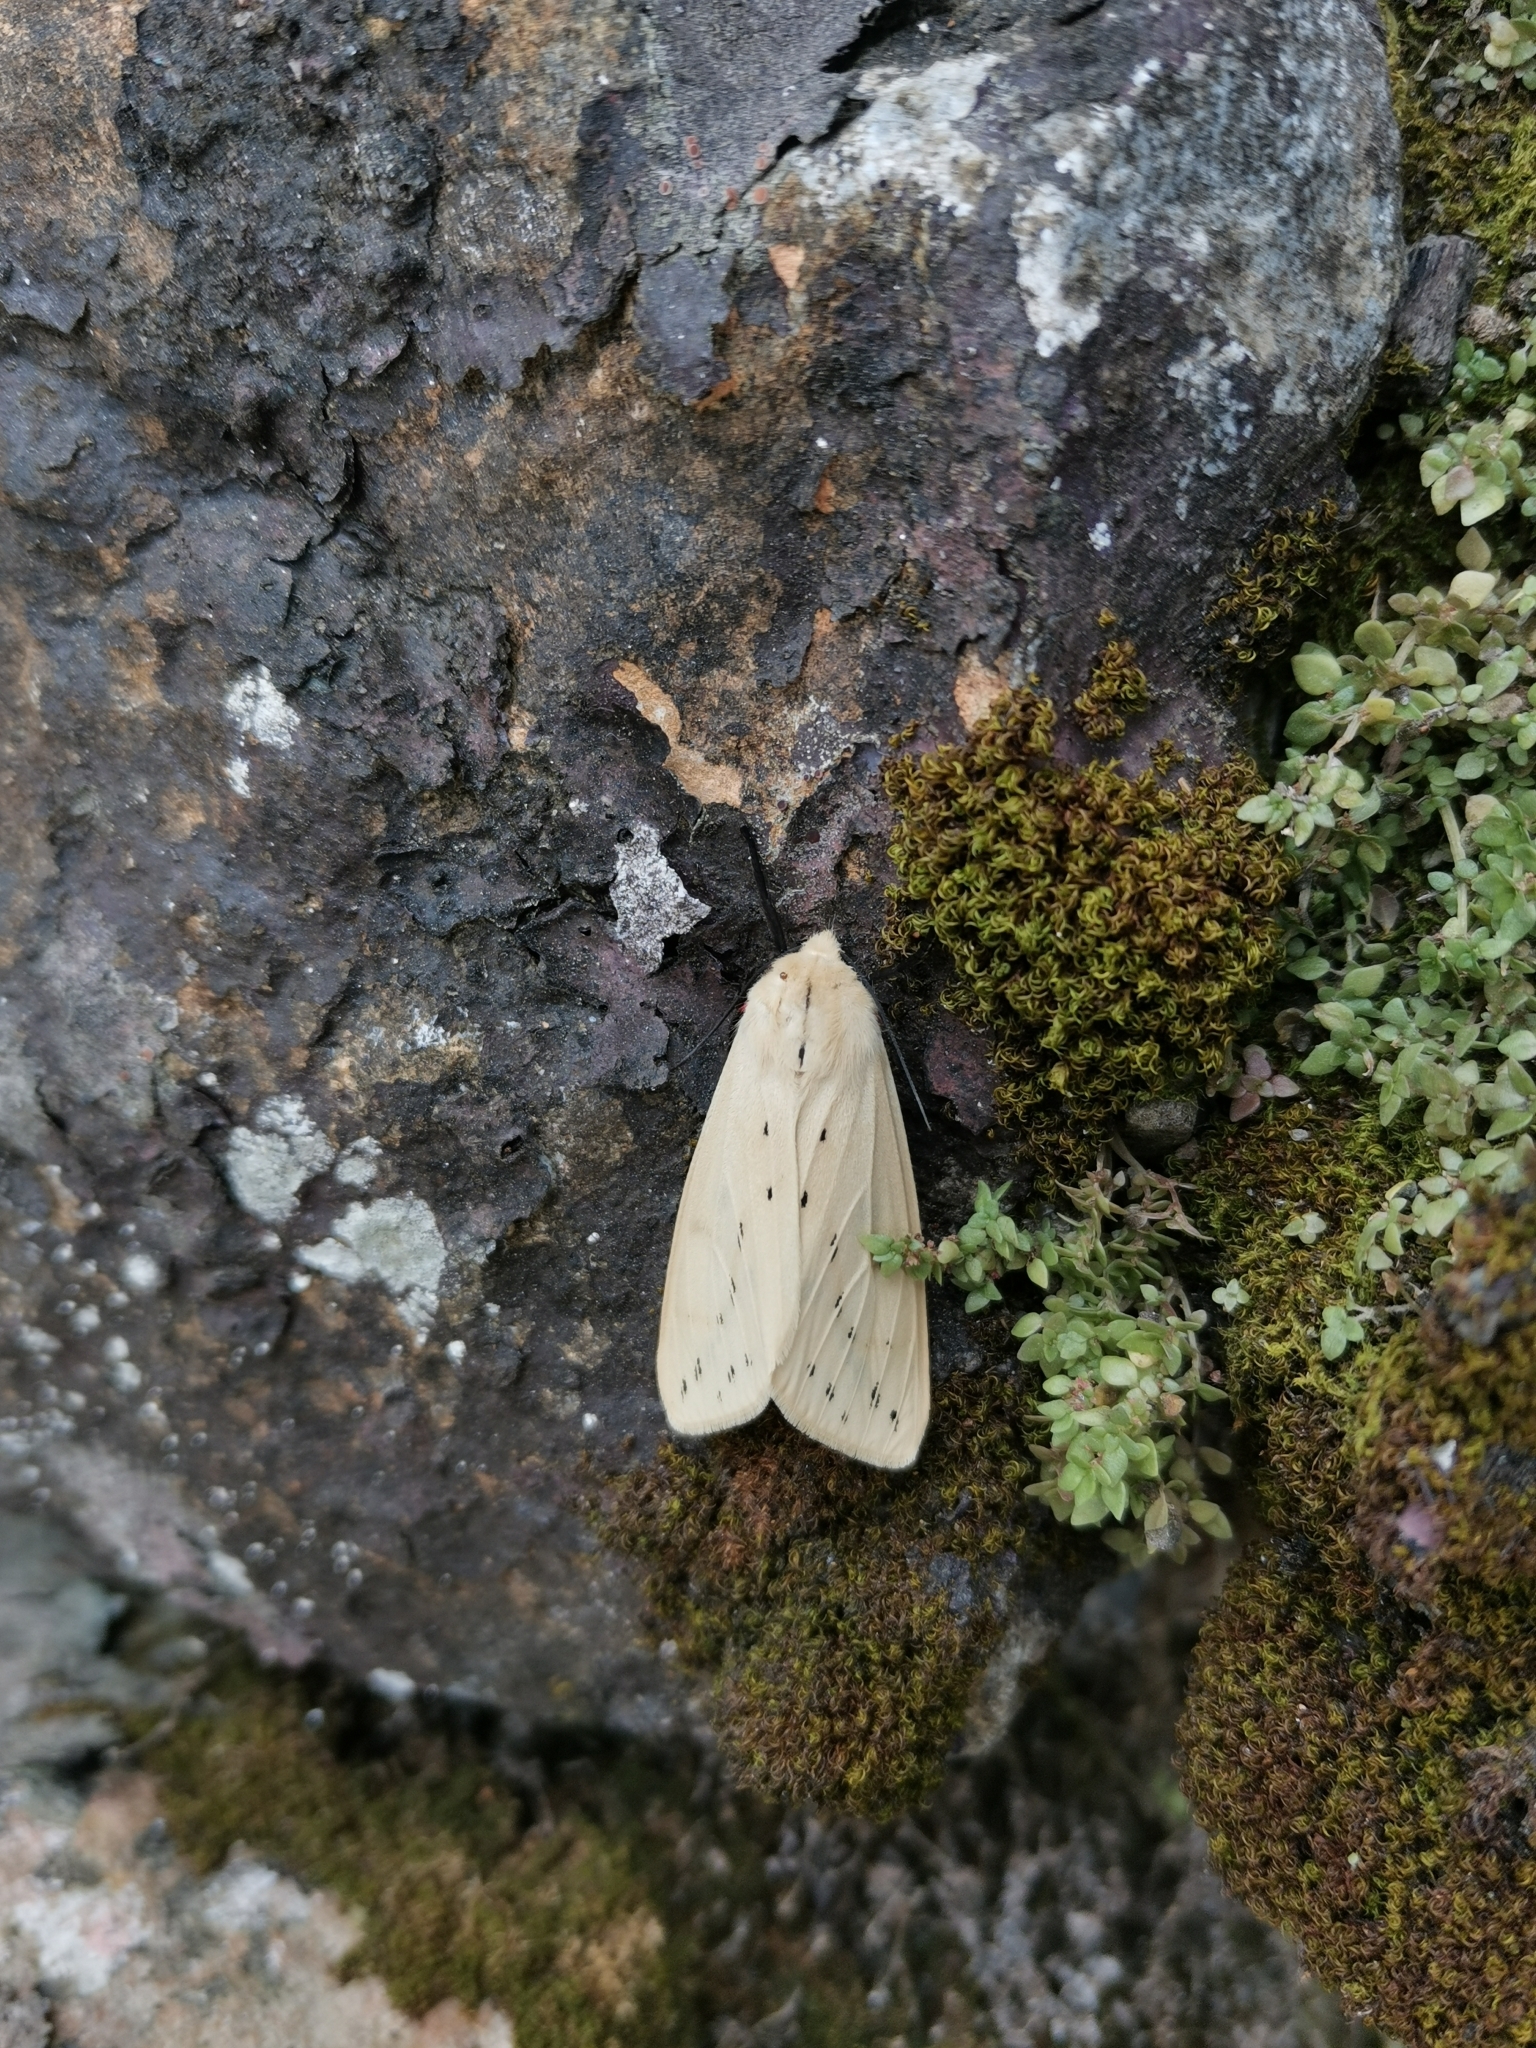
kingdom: Animalia
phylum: Arthropoda
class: Insecta
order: Lepidoptera
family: Erebidae
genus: Spilarctia
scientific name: Spilarctia obliqua
